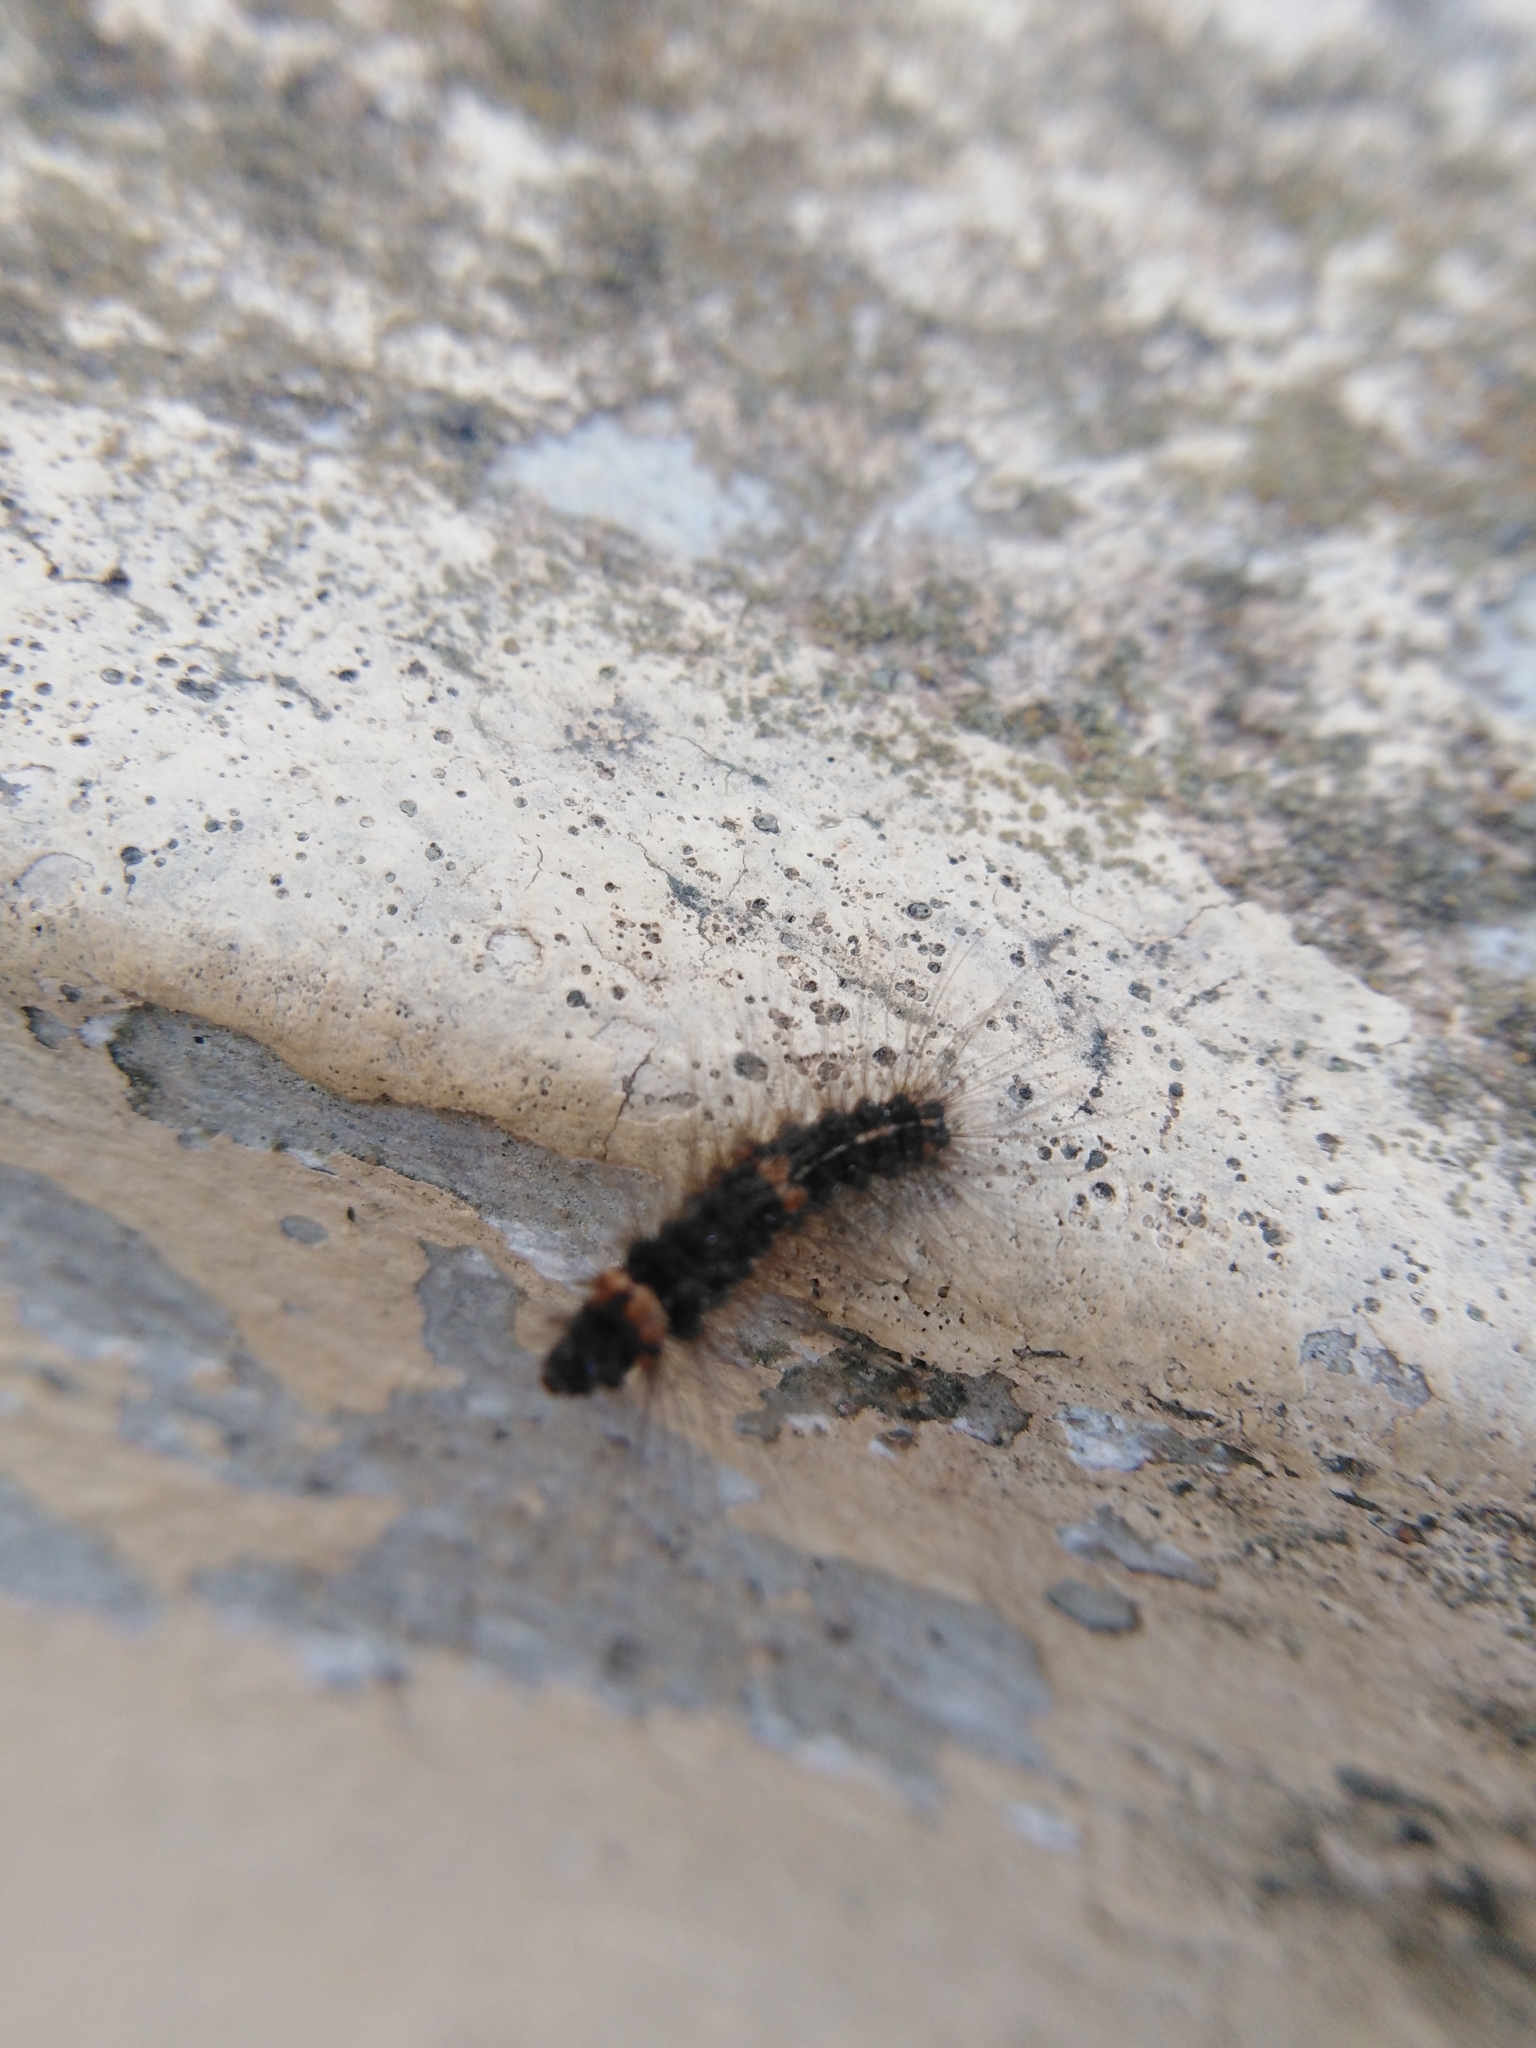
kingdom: Animalia
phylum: Arthropoda
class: Insecta
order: Lepidoptera
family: Erebidae
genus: Nepita
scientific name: Nepita conferta
